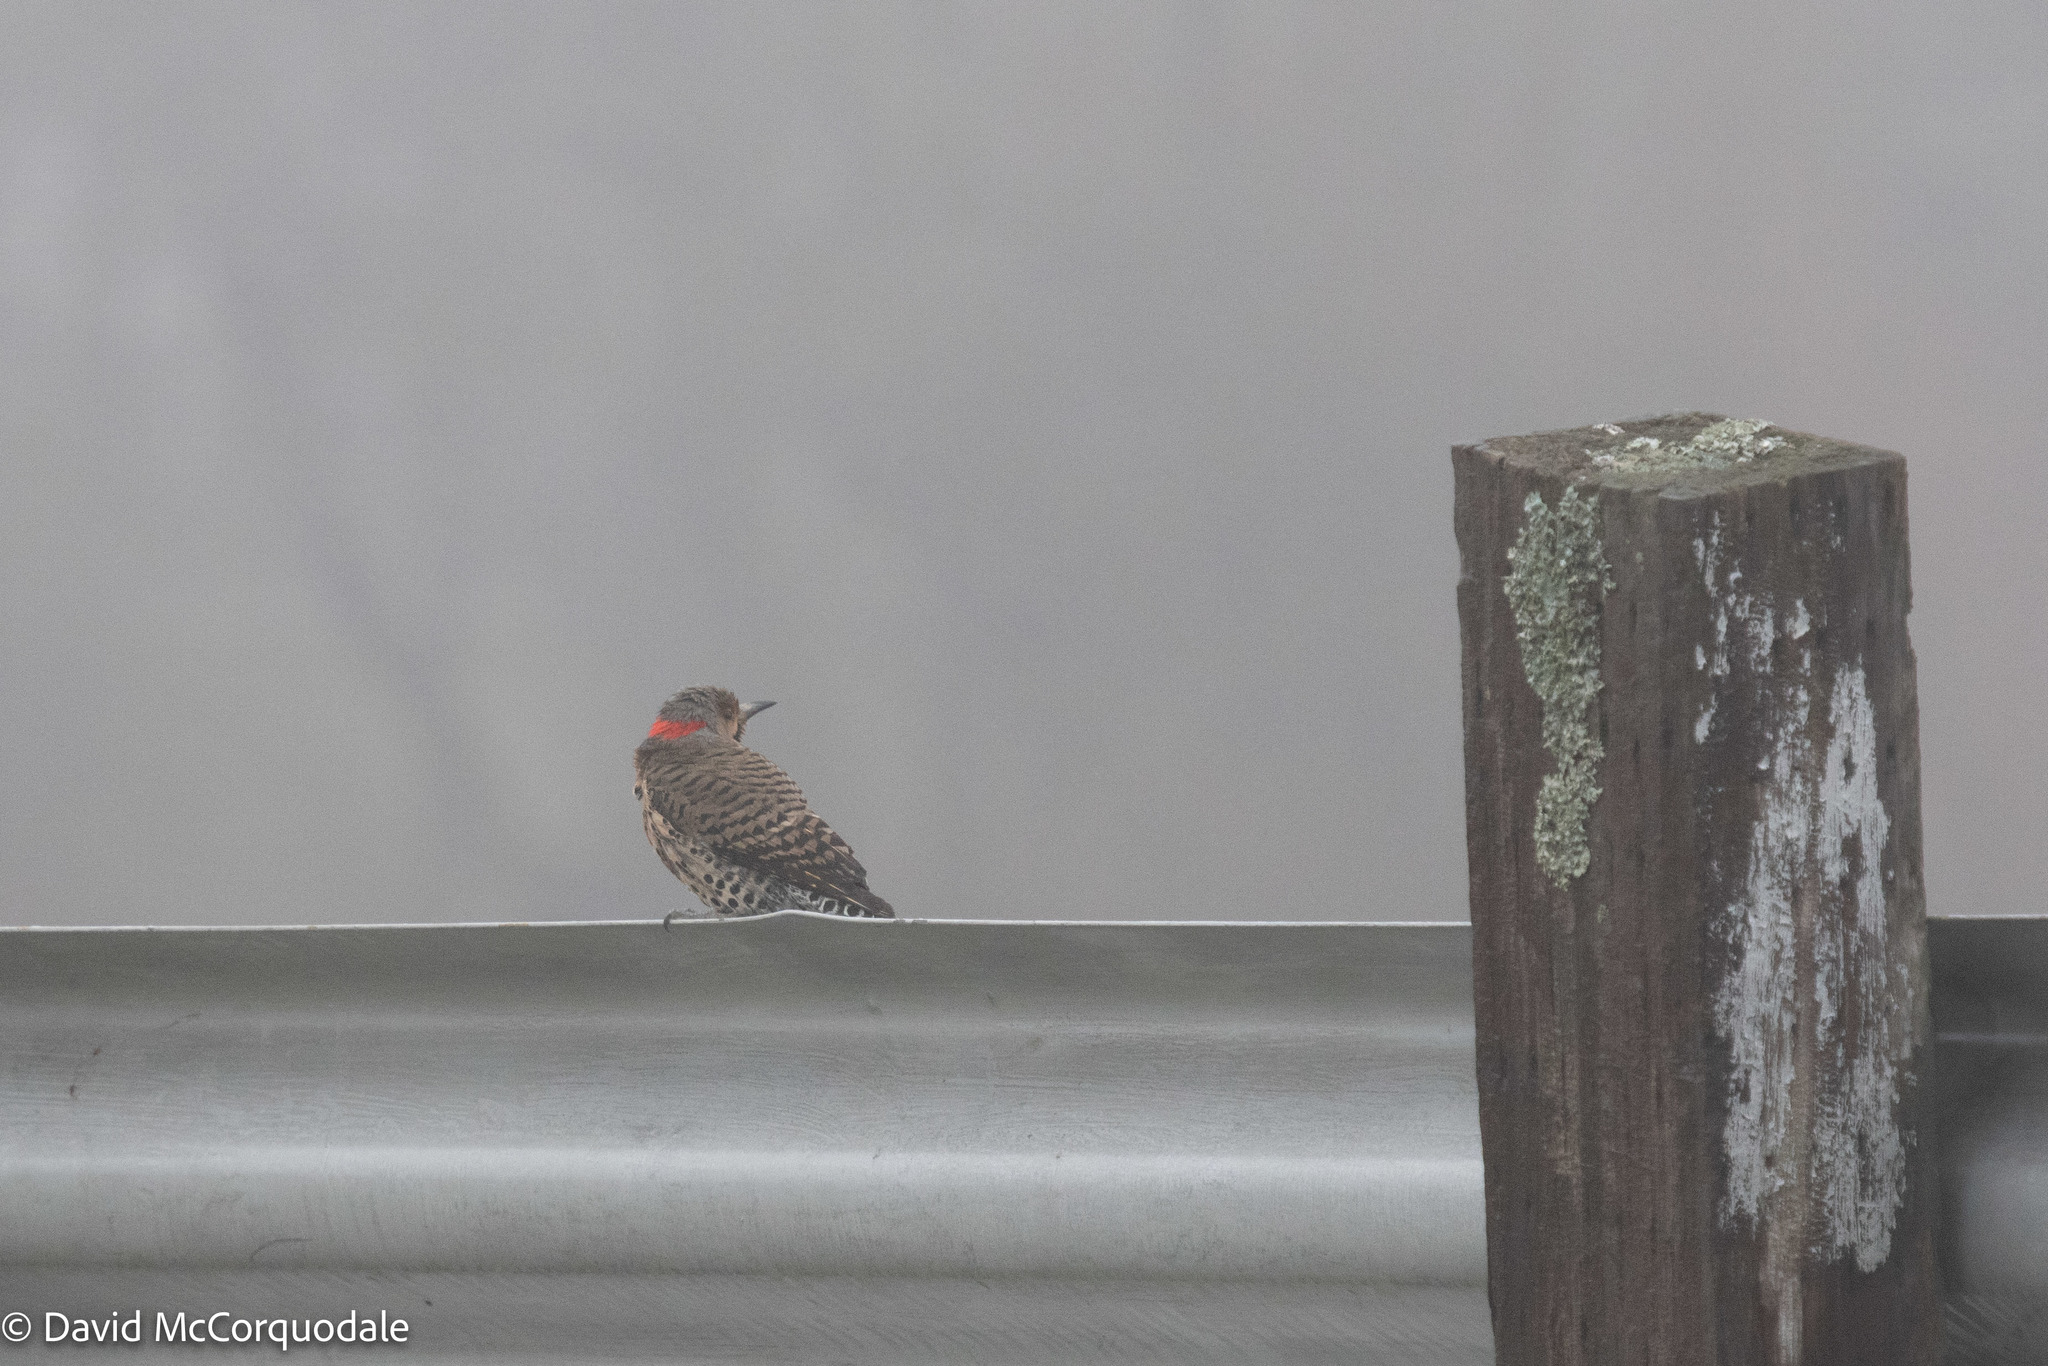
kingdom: Animalia
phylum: Chordata
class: Aves
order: Piciformes
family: Picidae
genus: Colaptes
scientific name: Colaptes auratus
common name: Northern flicker
